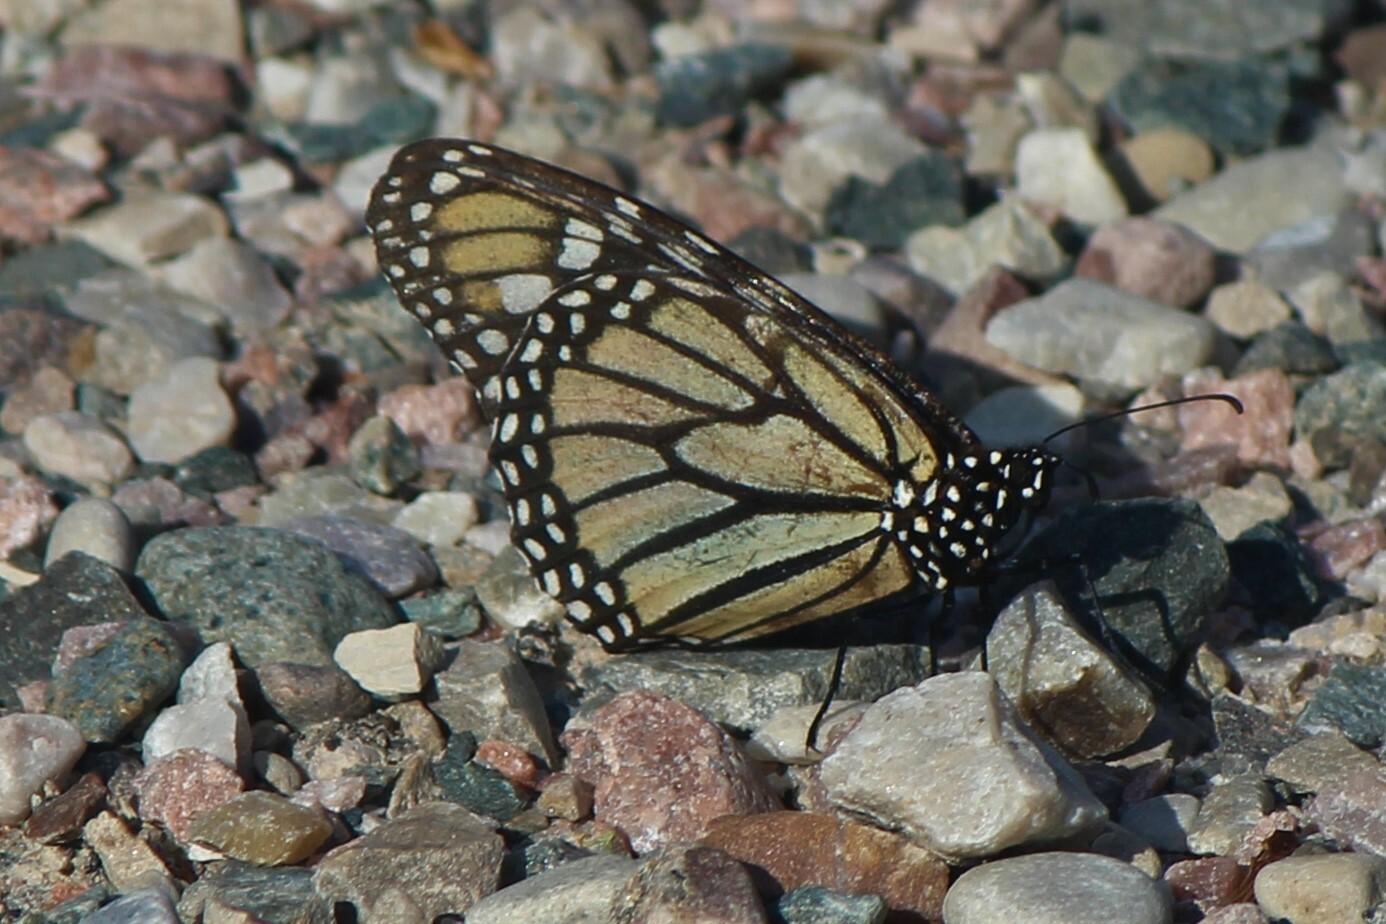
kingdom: Animalia
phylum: Arthropoda
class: Insecta
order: Lepidoptera
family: Nymphalidae
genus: Danaus
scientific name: Danaus plexippus
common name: Monarch
